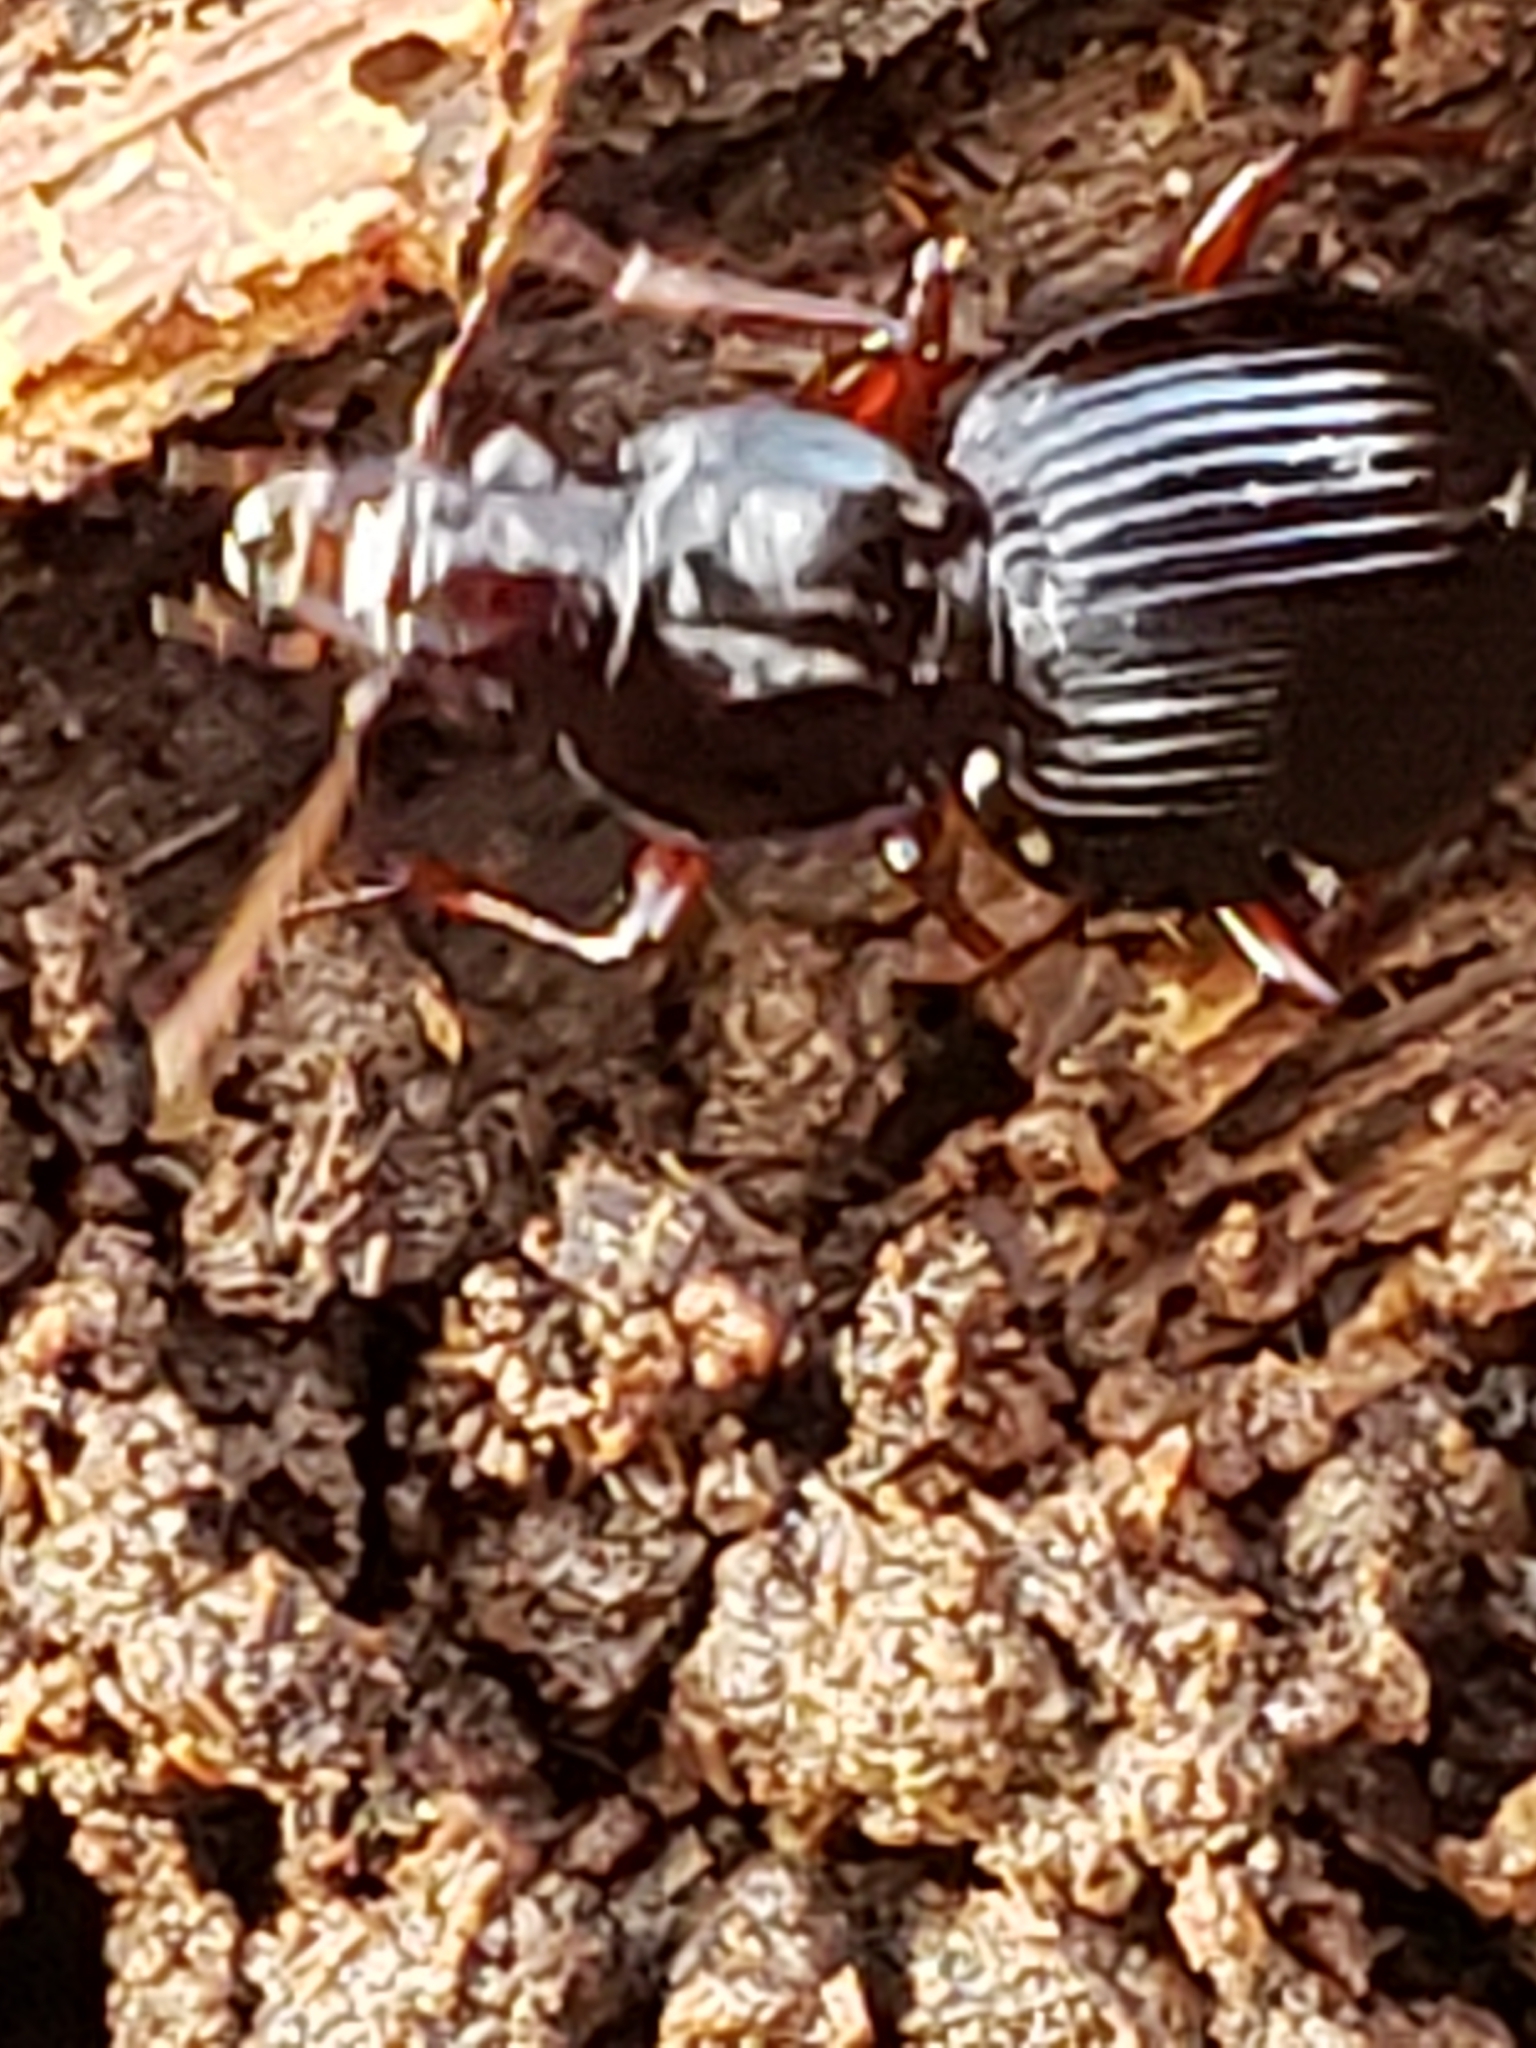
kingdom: Animalia
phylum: Arthropoda
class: Insecta
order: Coleoptera
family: Carabidae
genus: Gastrellarius
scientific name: Gastrellarius honestus
